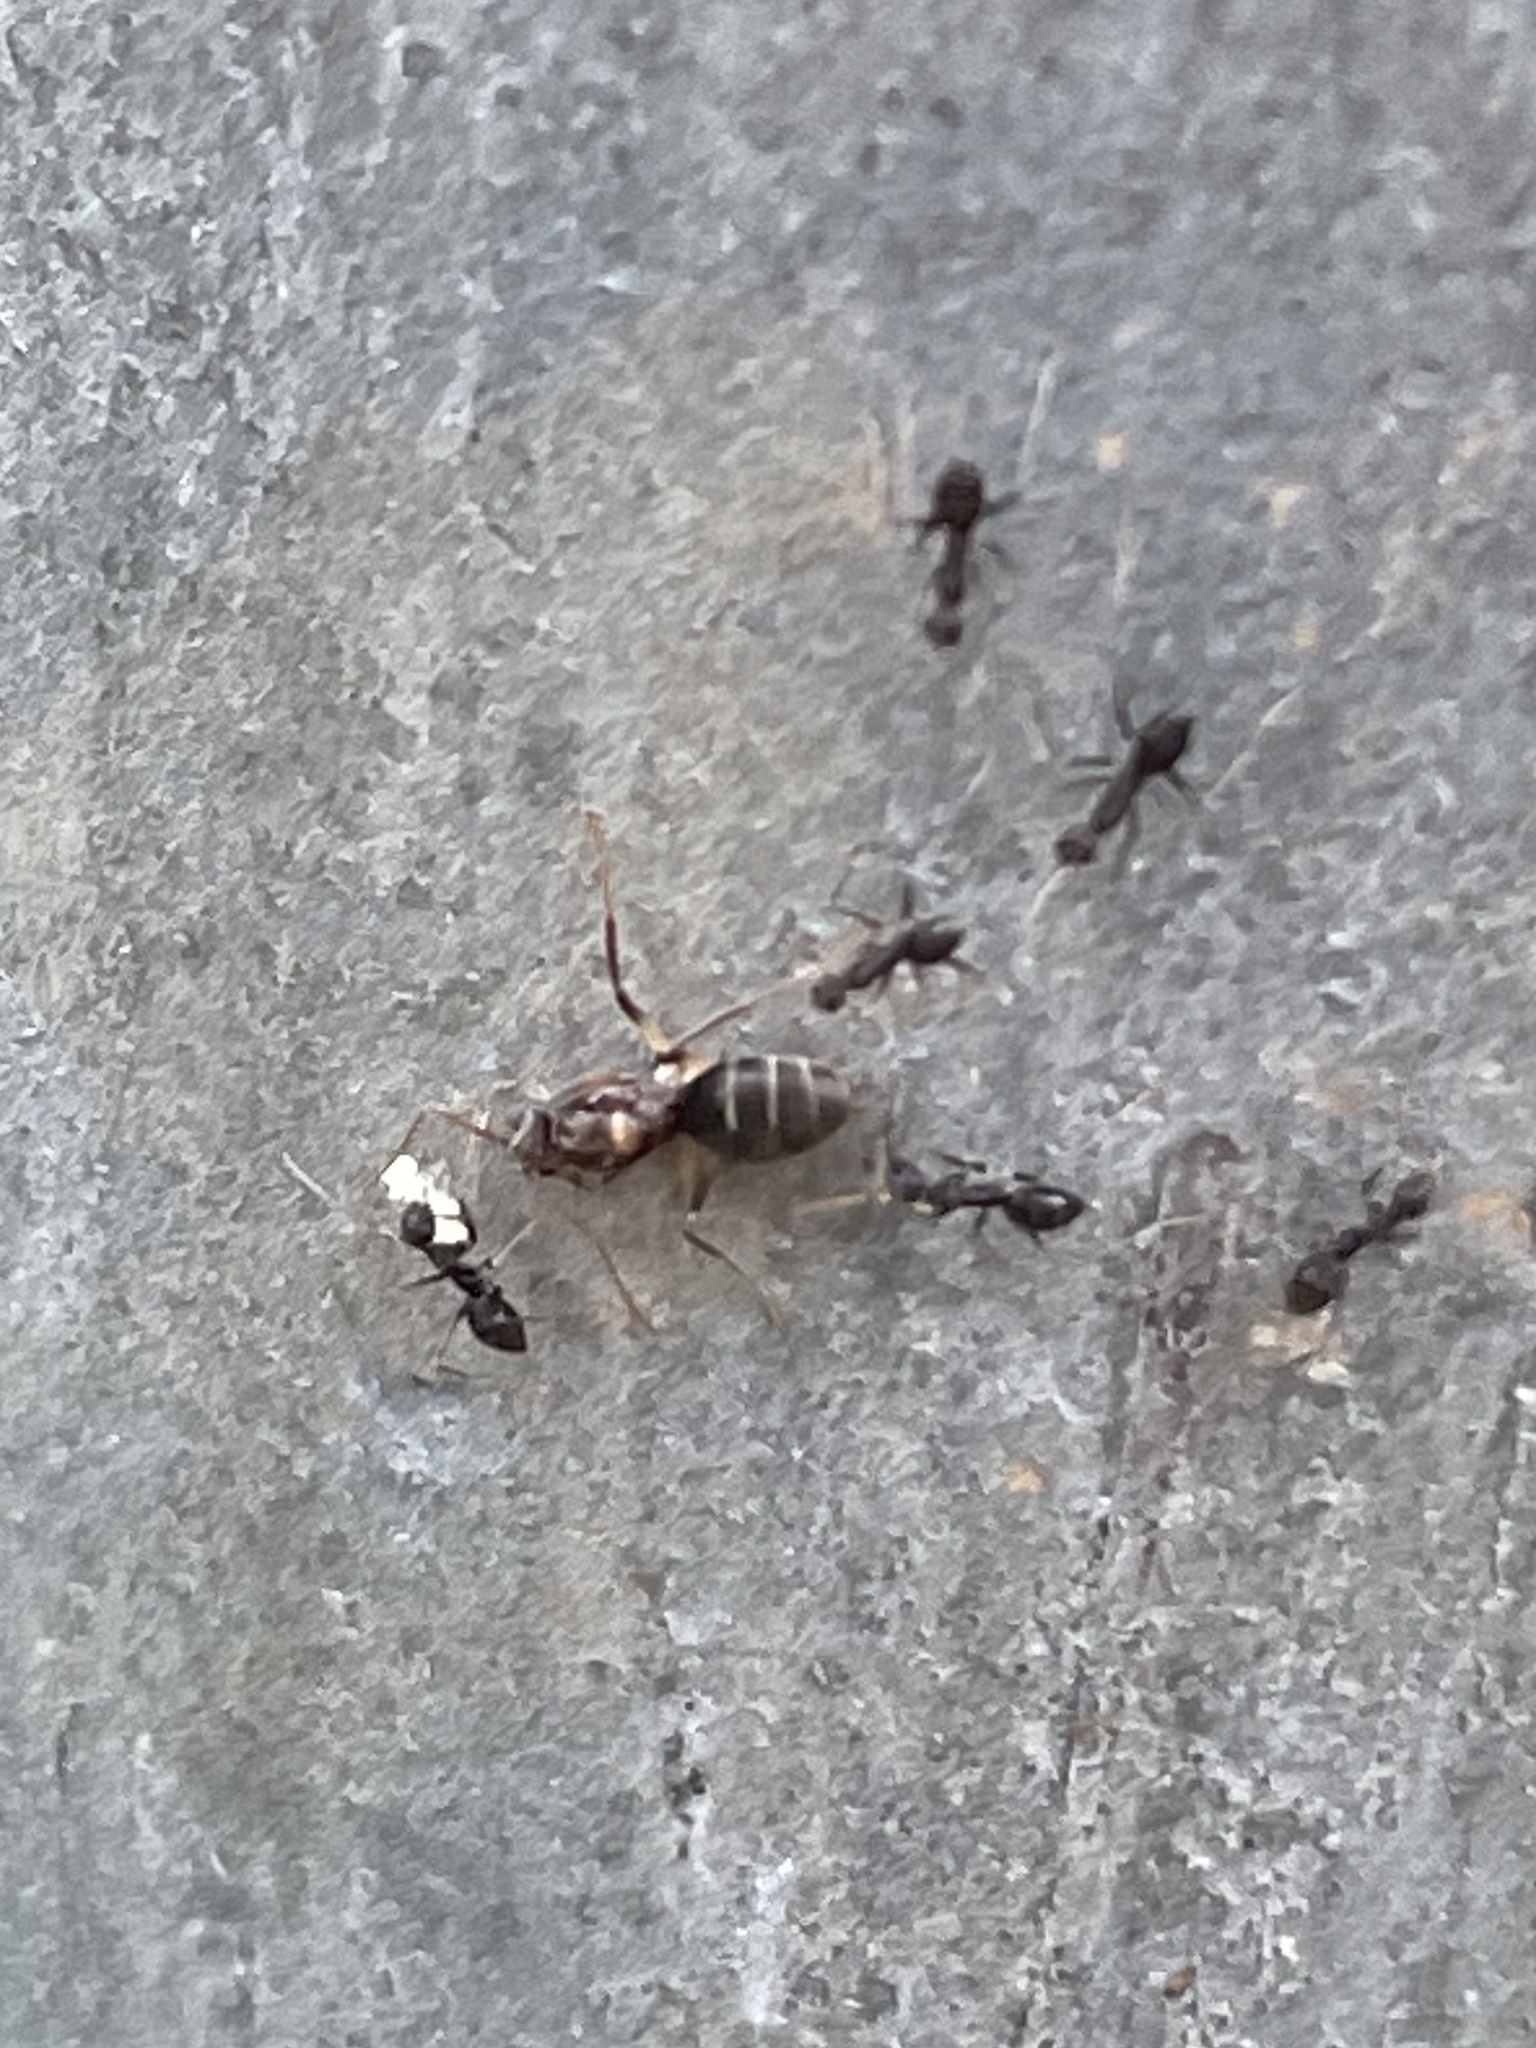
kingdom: Animalia
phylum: Arthropoda
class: Insecta
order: Hymenoptera
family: Formicidae
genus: Paratrechina
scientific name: Paratrechina longicornis
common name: Longhorned crazy ant
